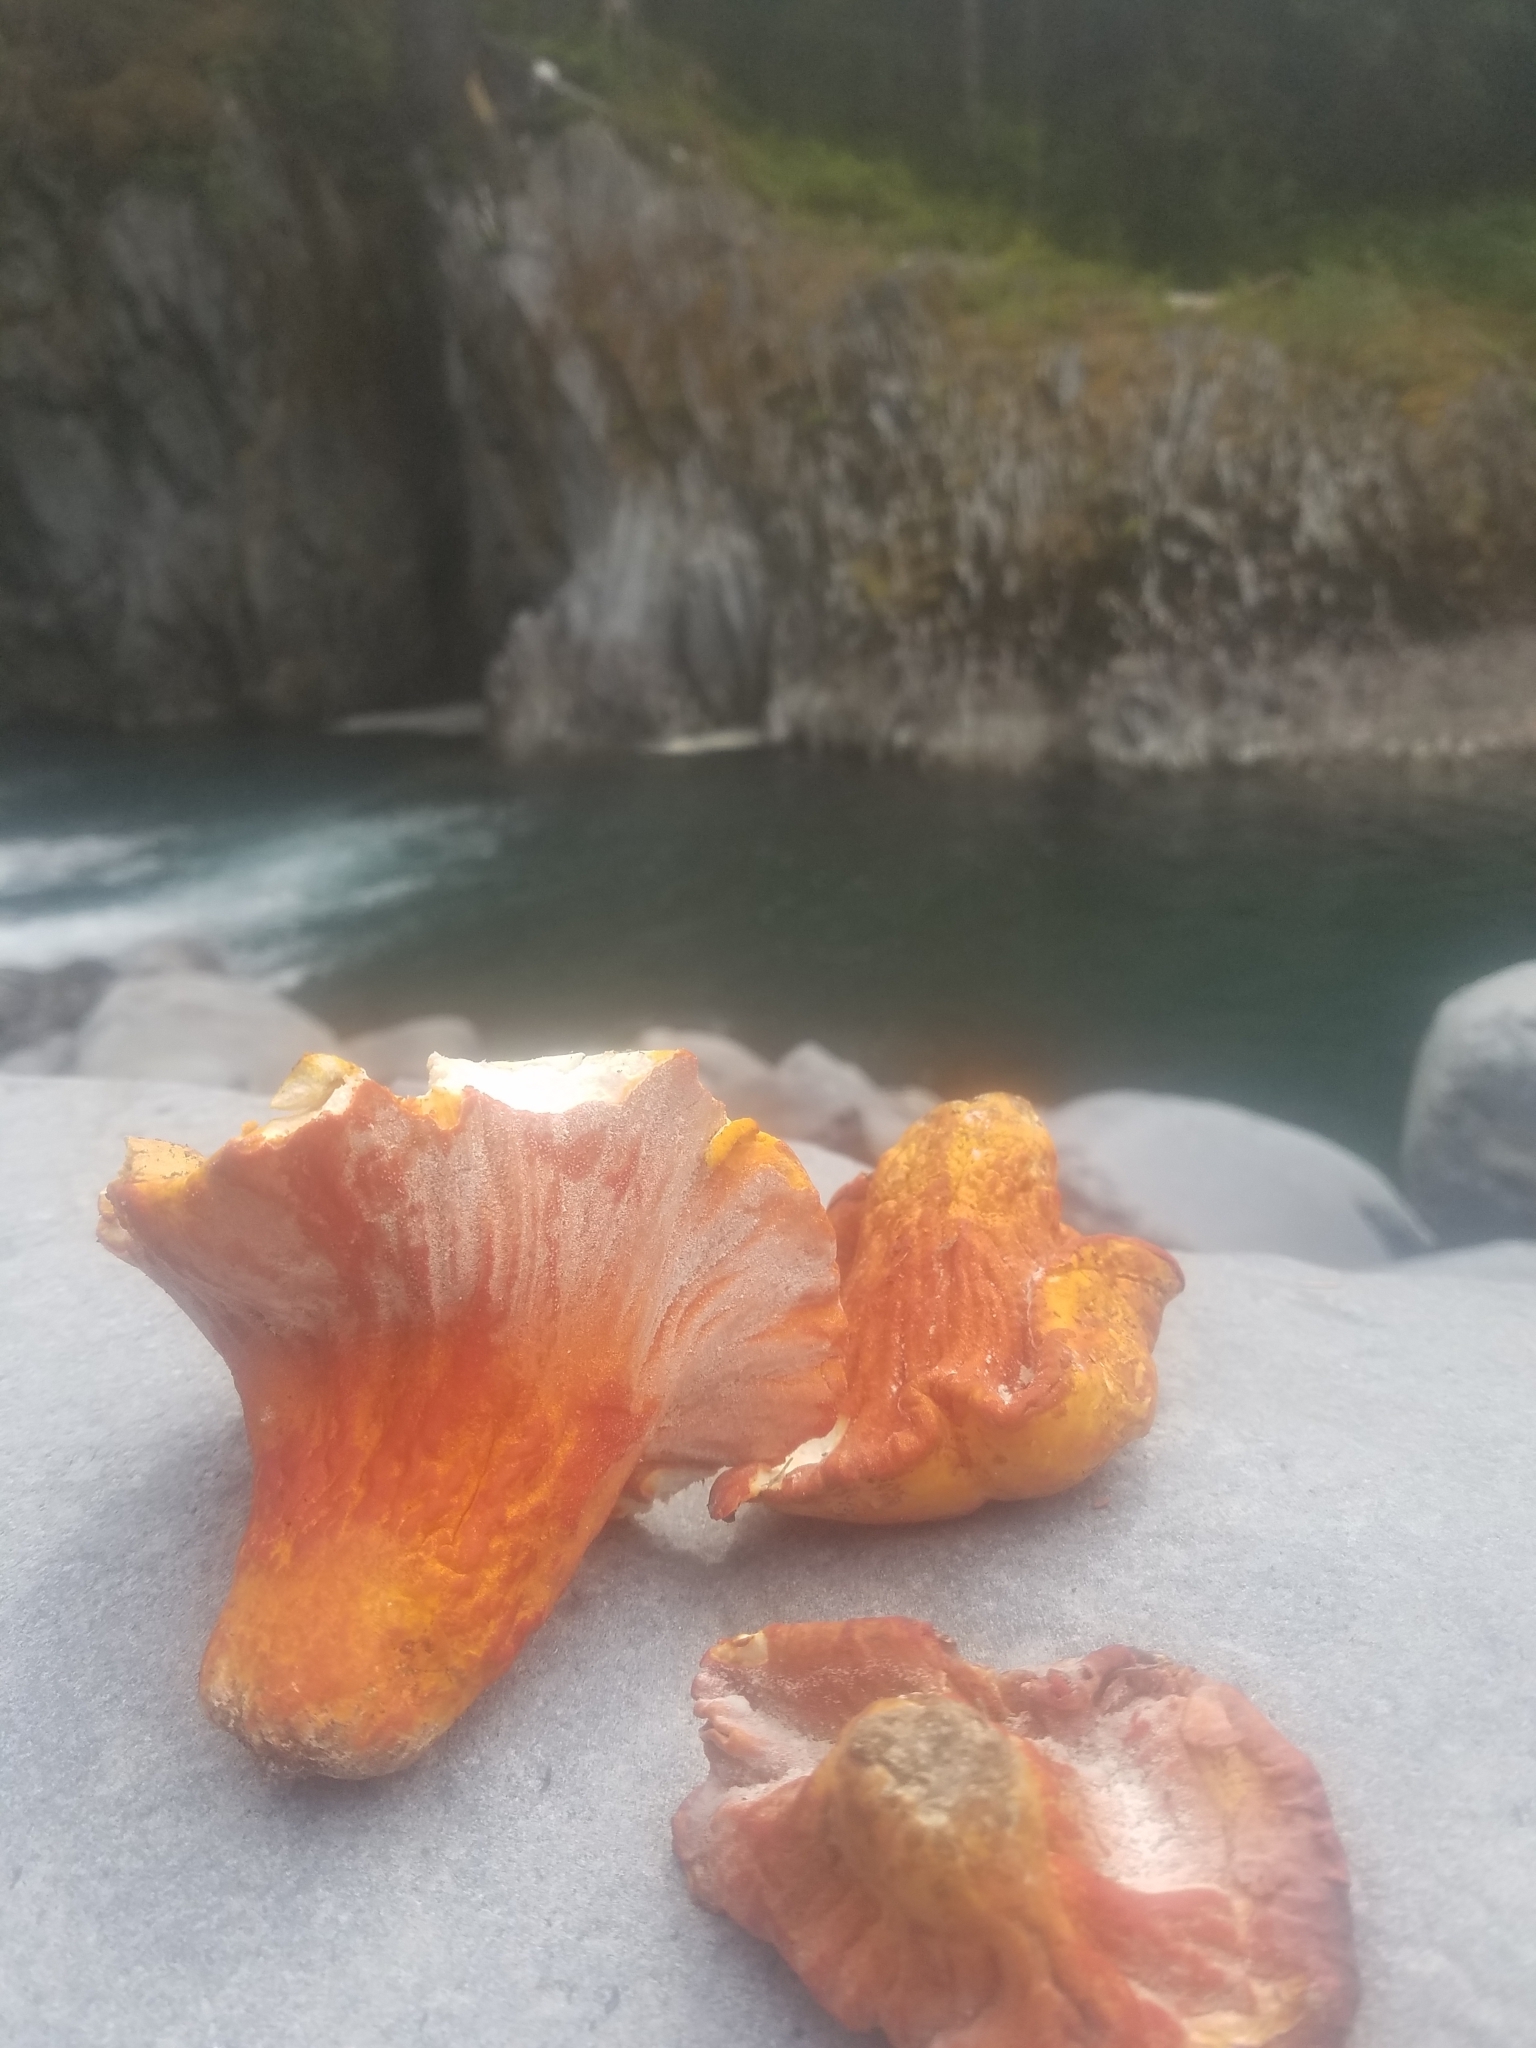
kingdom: Fungi
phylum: Ascomycota
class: Sordariomycetes
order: Hypocreales
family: Hypocreaceae
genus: Hypomyces
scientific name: Hypomyces lactifluorum
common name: Lobster mushroom
